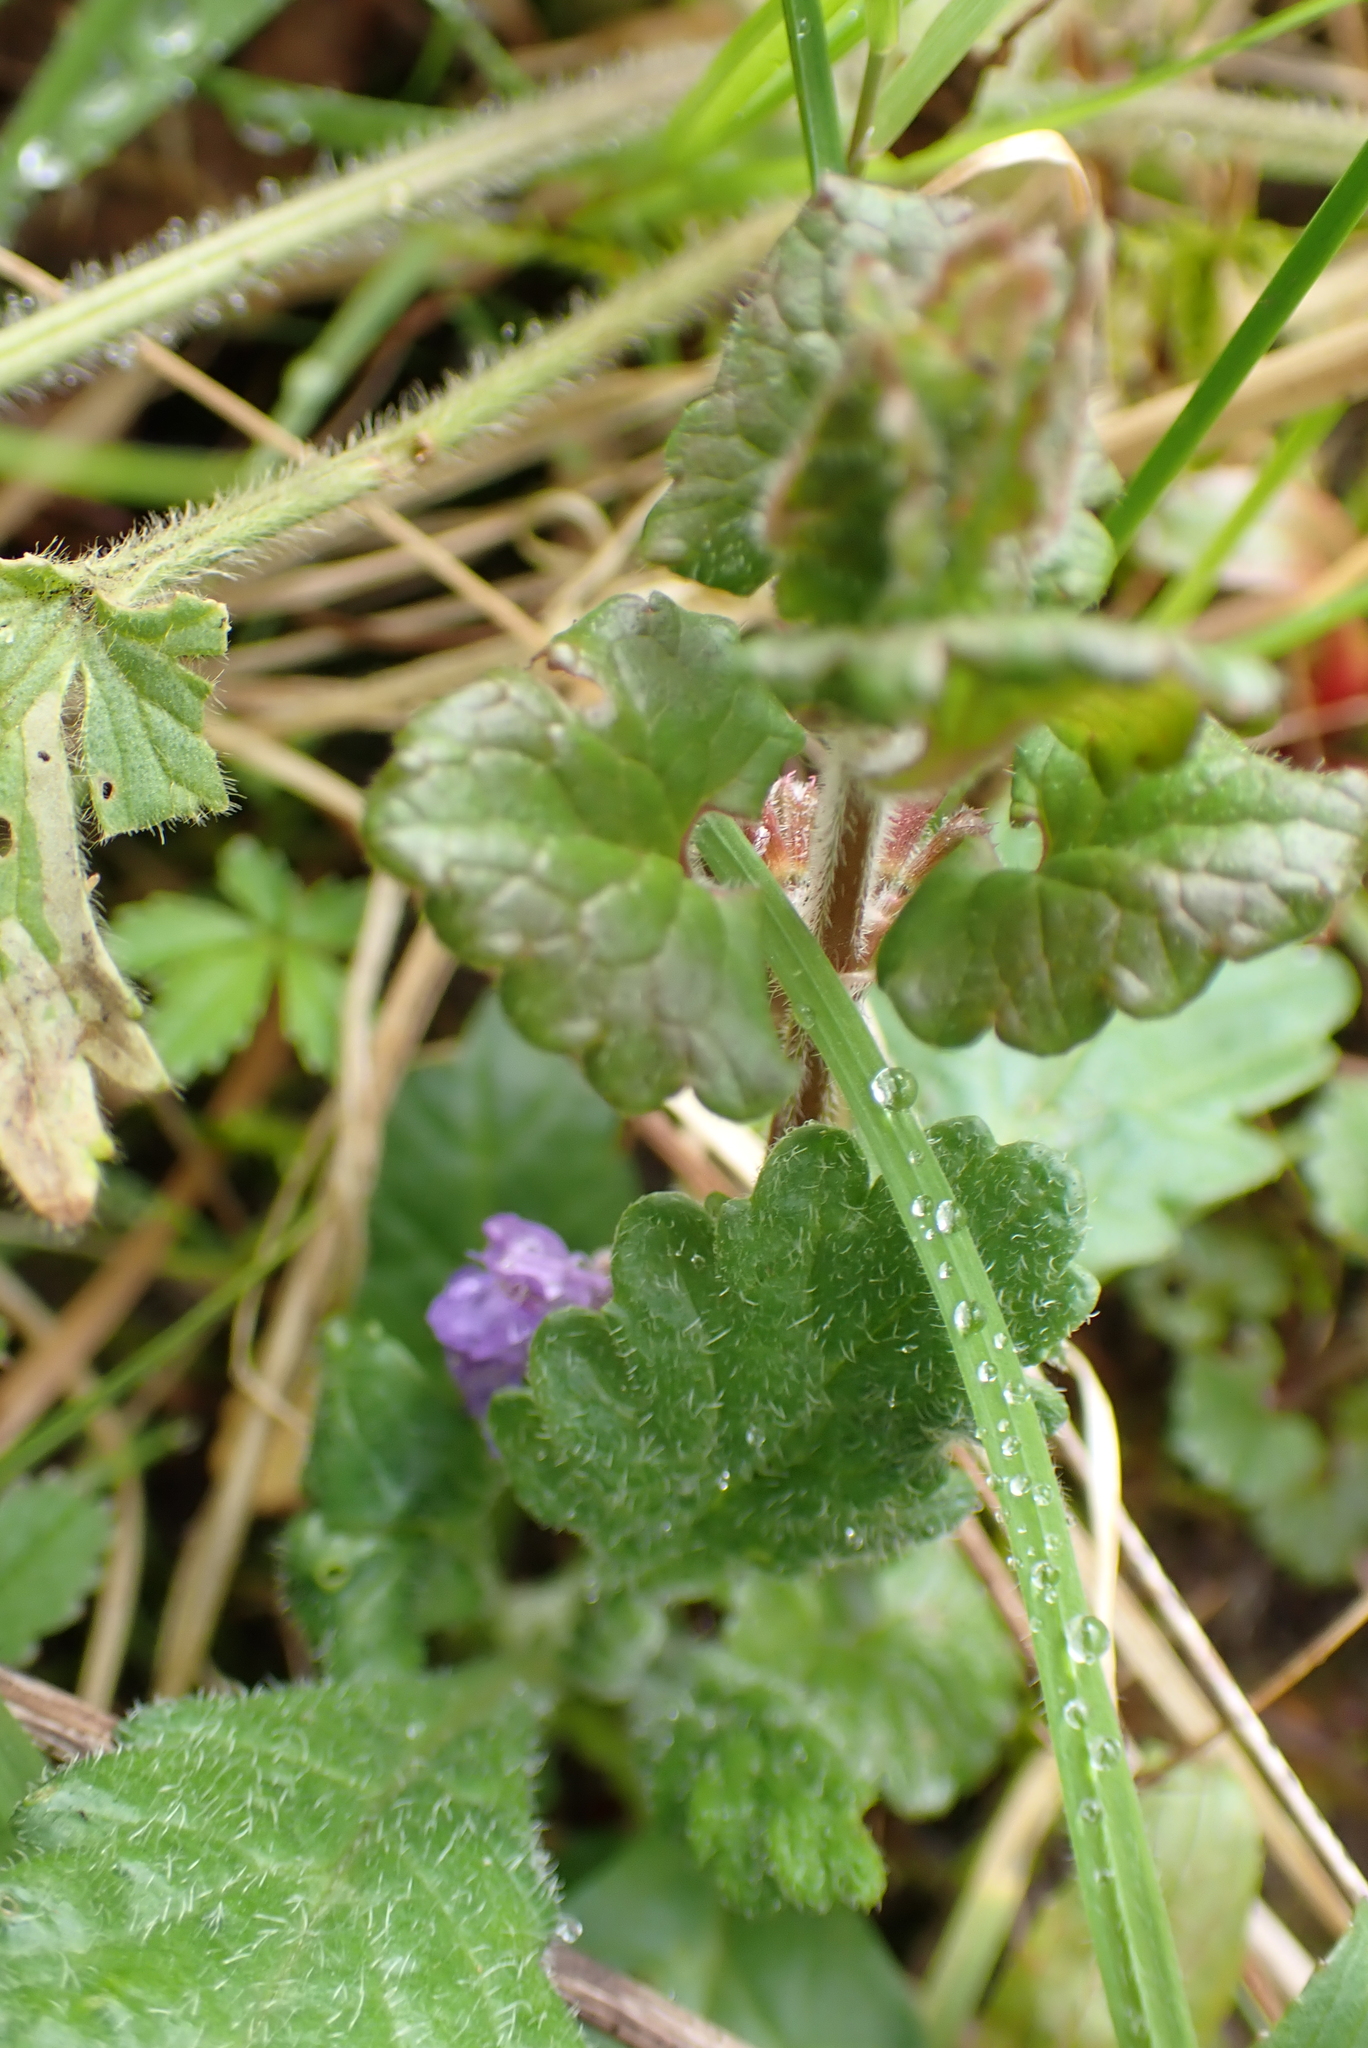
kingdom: Plantae
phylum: Tracheophyta
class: Magnoliopsida
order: Lamiales
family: Lamiaceae
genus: Glechoma
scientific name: Glechoma hederacea
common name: Ground ivy
